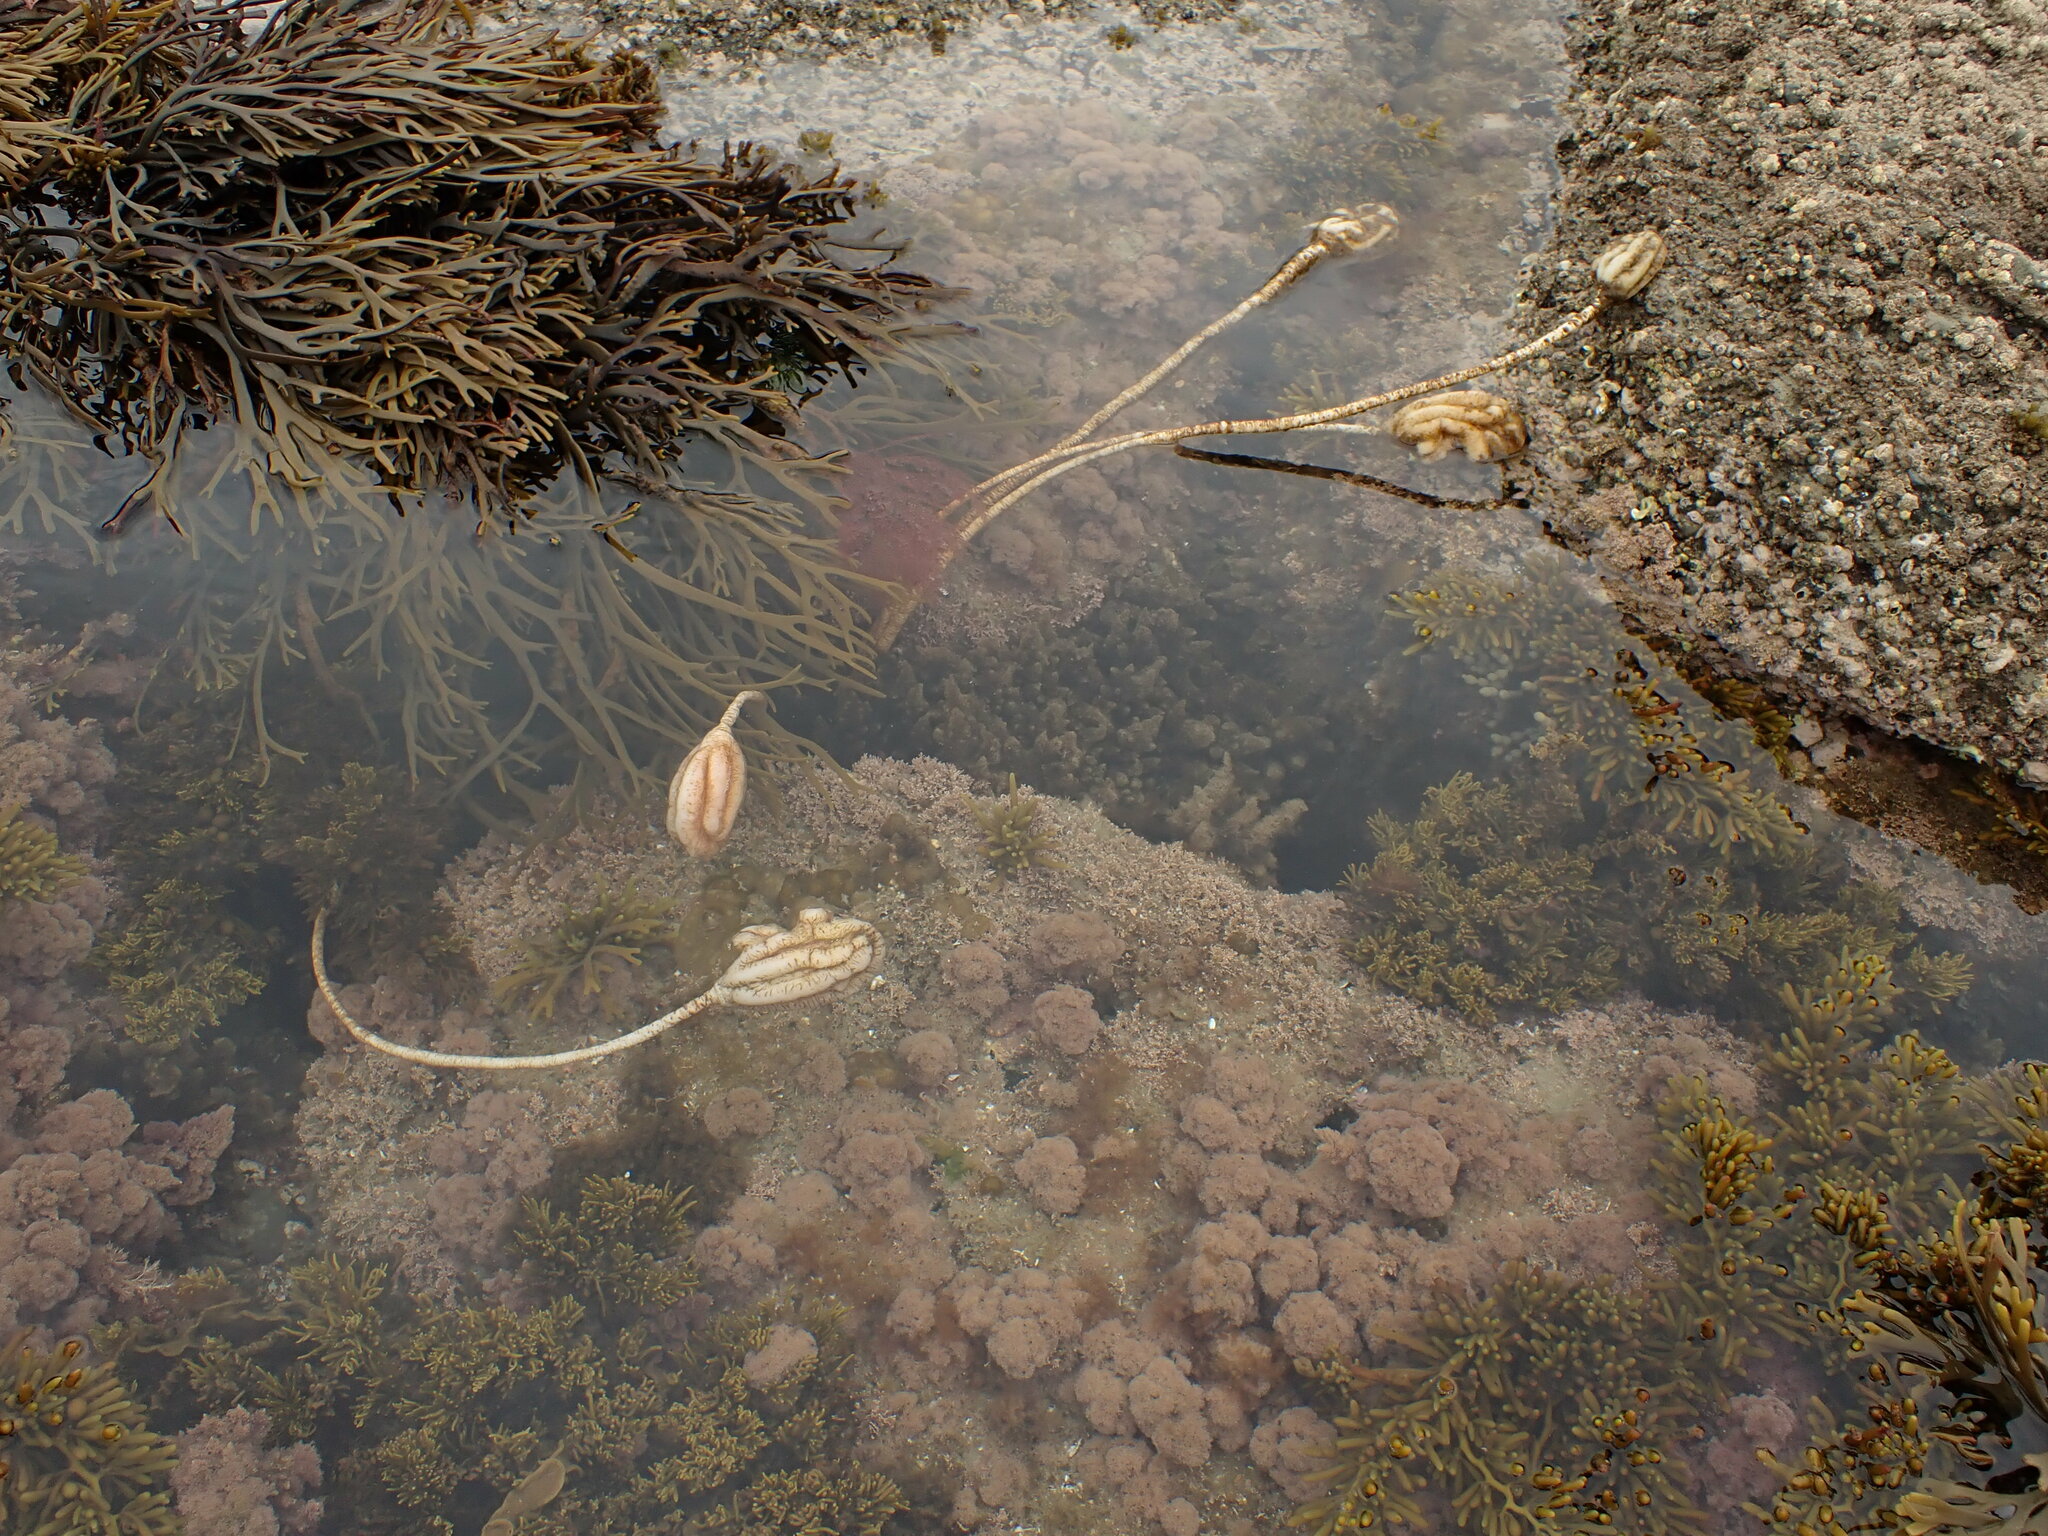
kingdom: Animalia
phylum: Chordata
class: Ascidiacea
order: Stolidobranchia
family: Pyuridae
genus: Pyura
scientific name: Pyura pachydermatina
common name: Sea tulip
